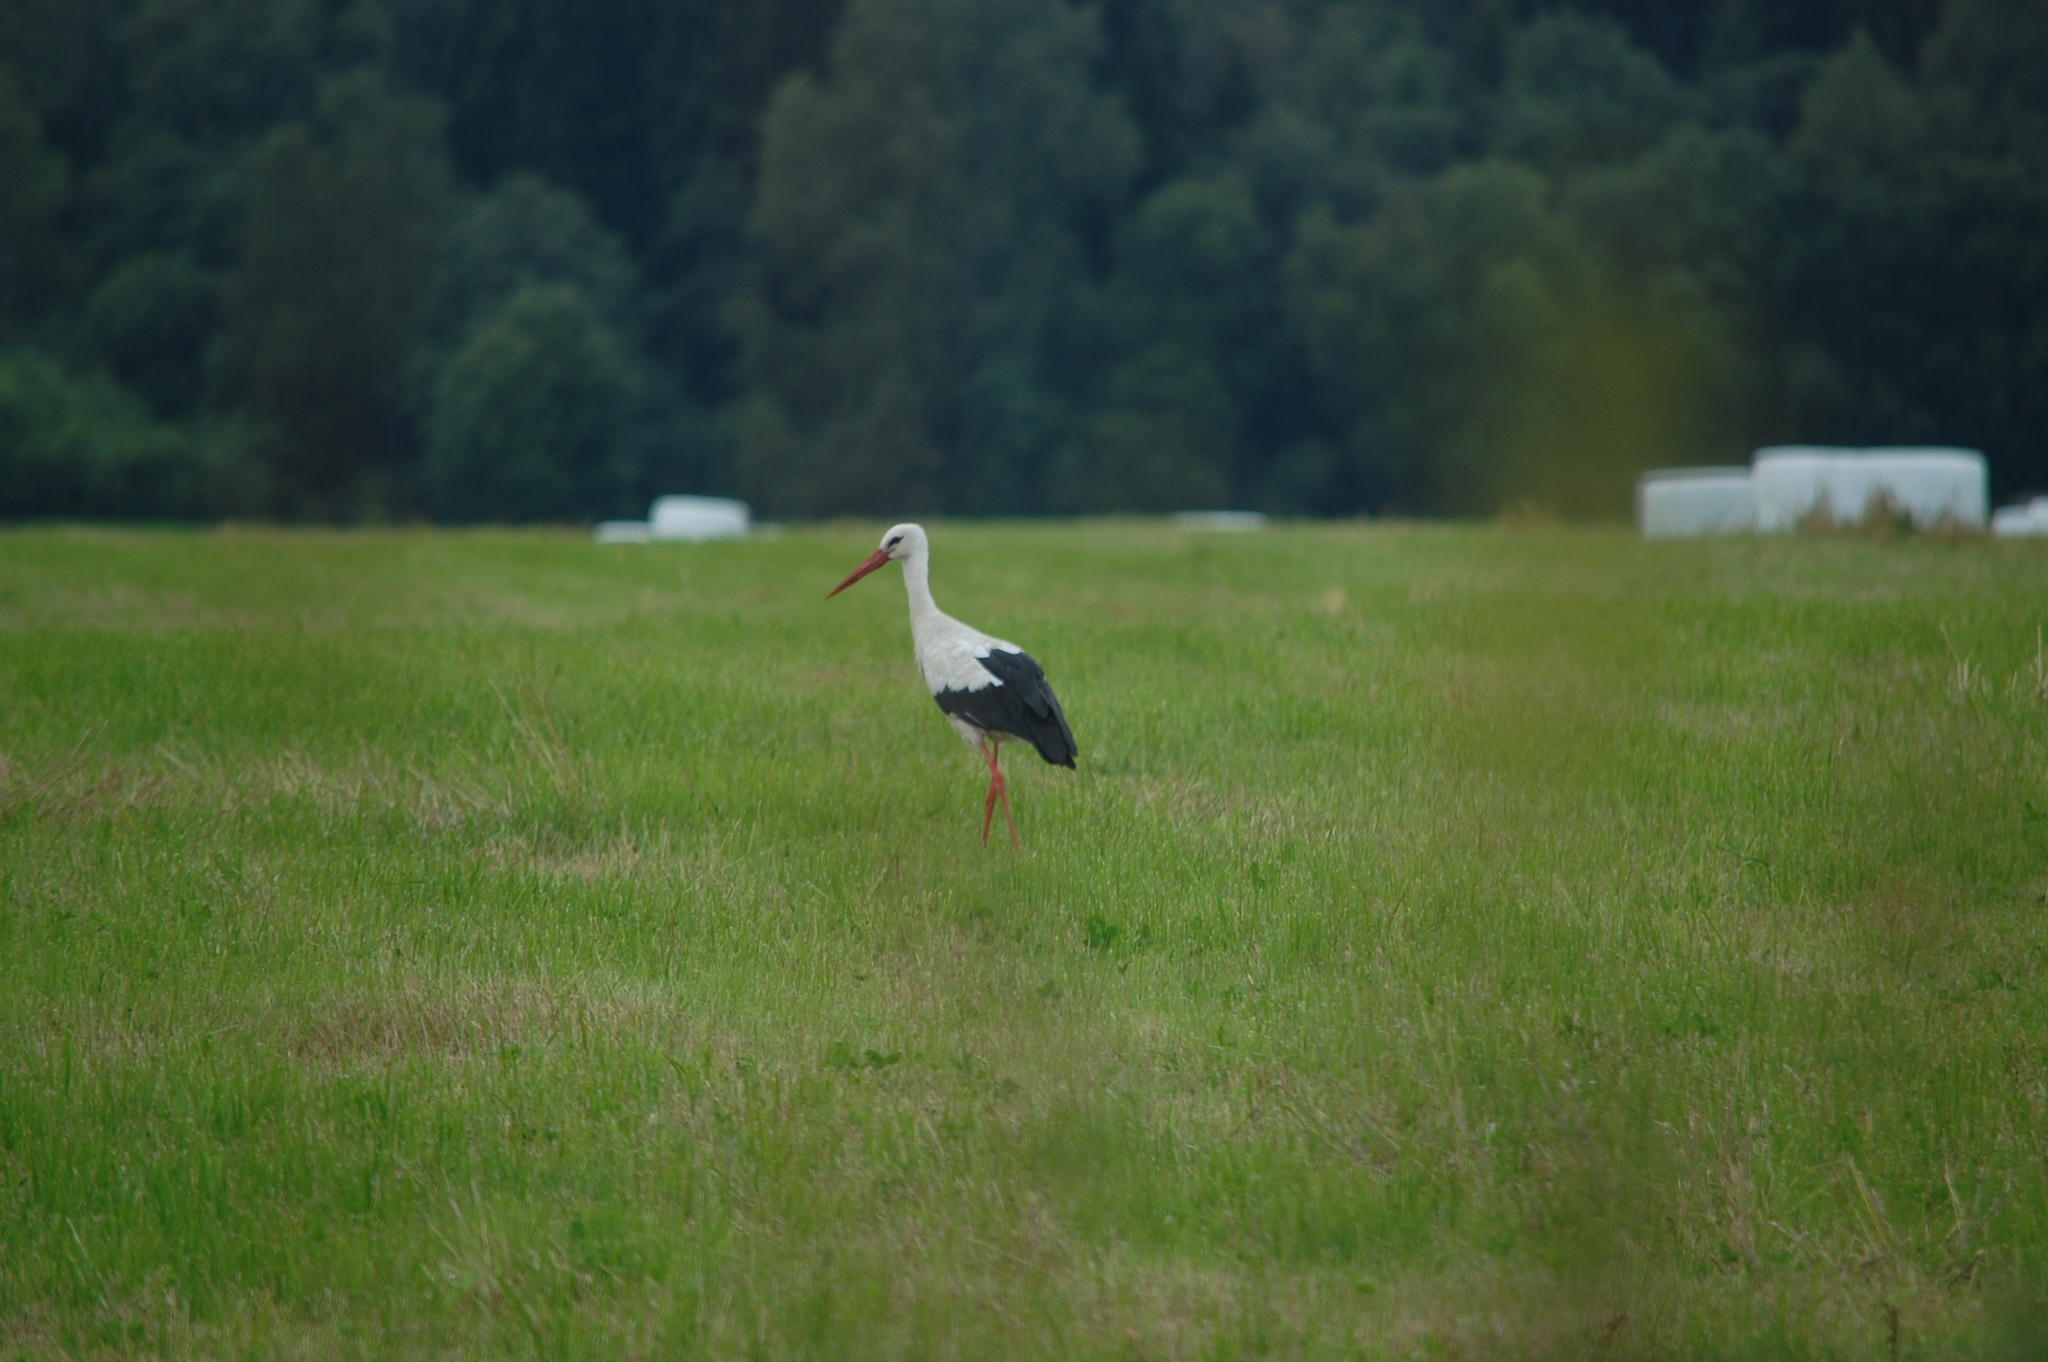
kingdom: Animalia
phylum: Chordata
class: Aves
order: Ciconiiformes
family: Ciconiidae
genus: Ciconia
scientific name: Ciconia ciconia
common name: White stork
